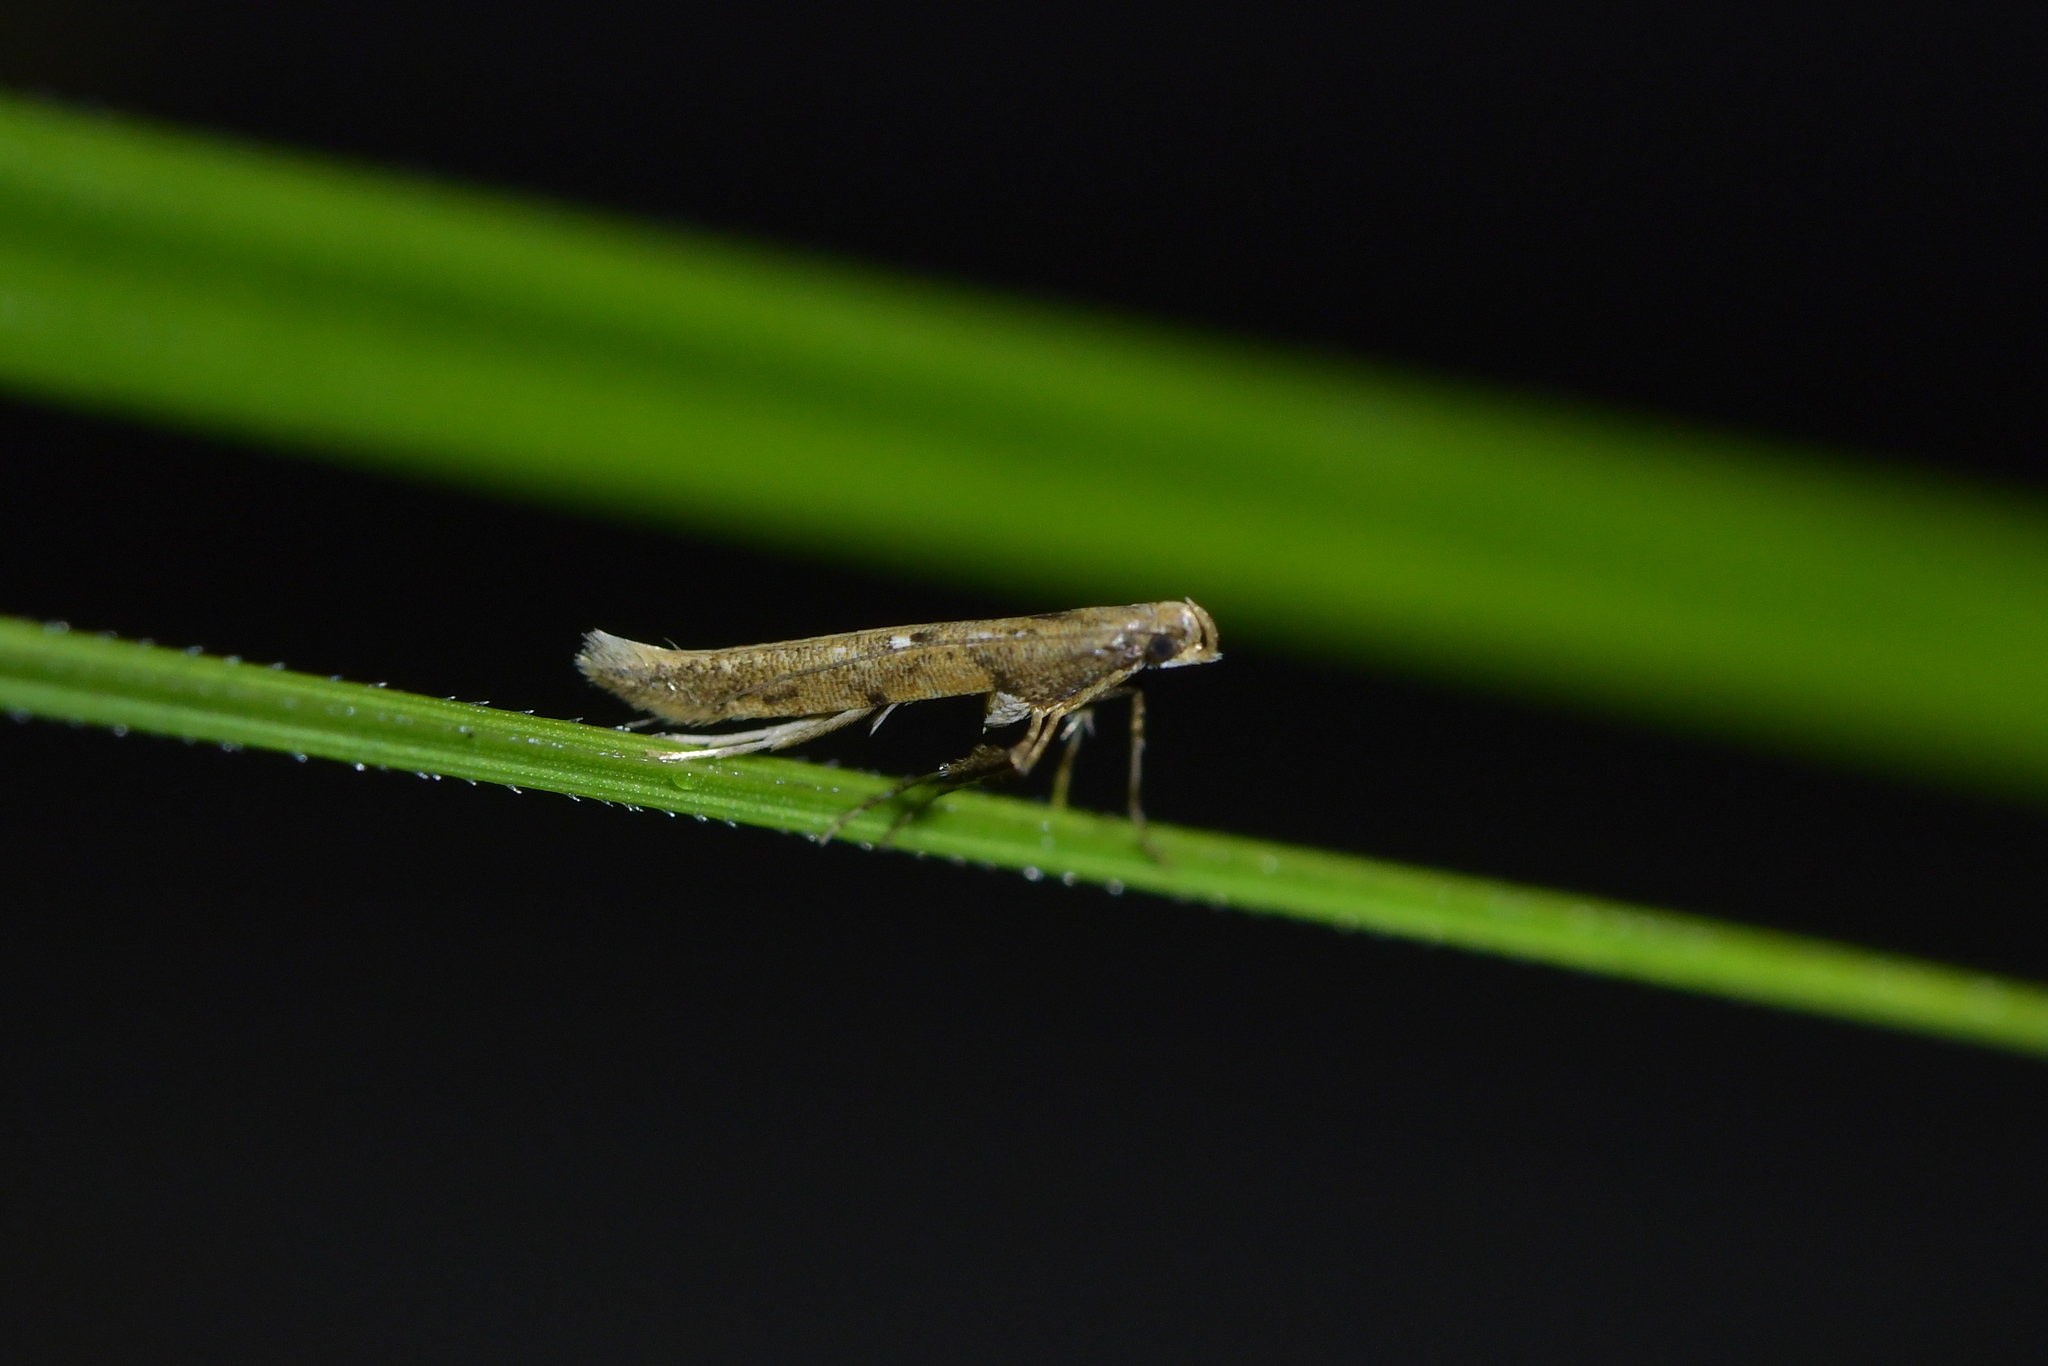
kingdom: Animalia
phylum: Arthropoda
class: Insecta
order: Lepidoptera
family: Gracillariidae
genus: Caloptilia
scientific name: Caloptilia linearis
